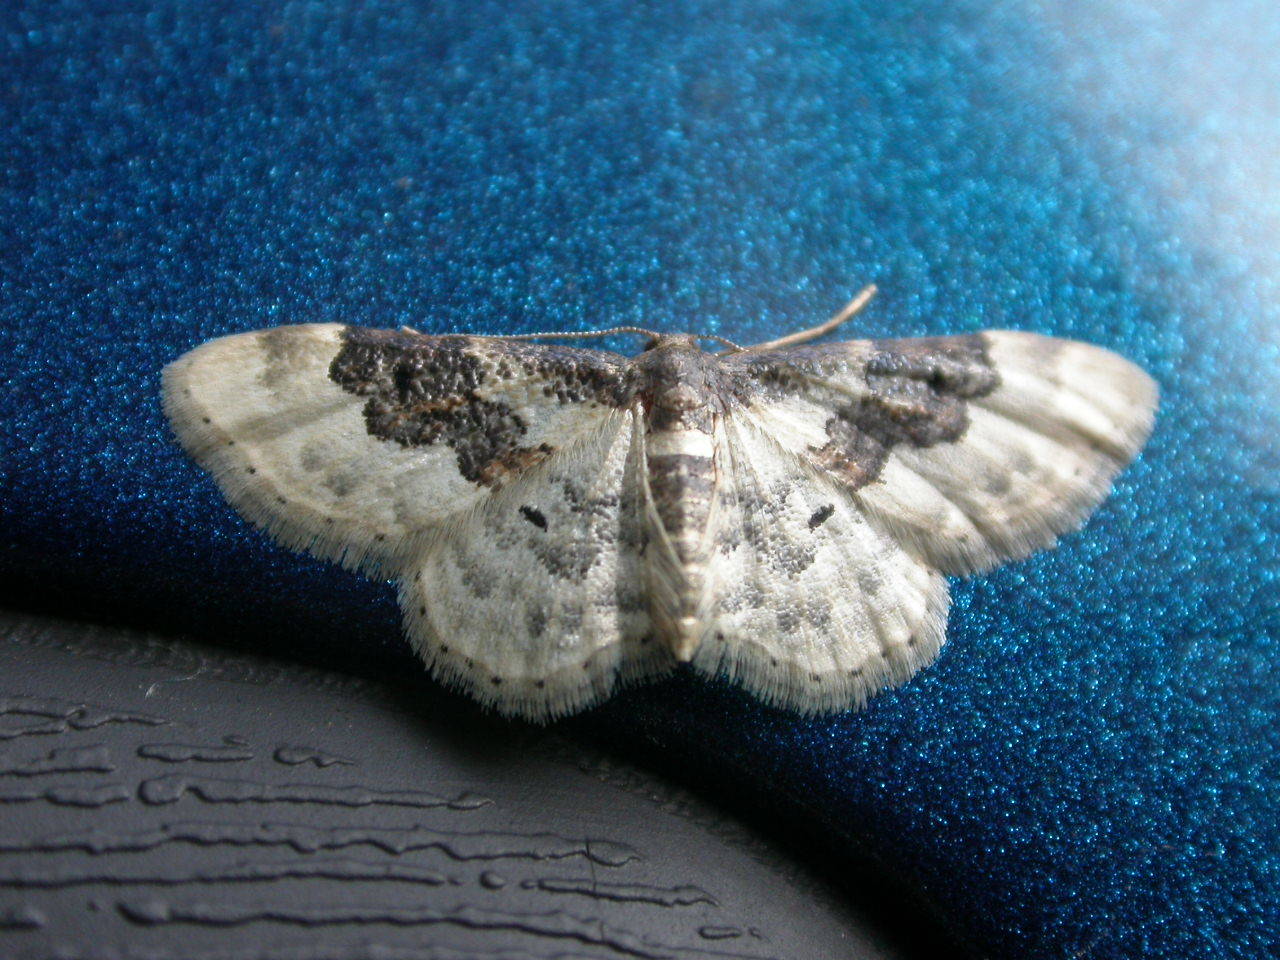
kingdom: Animalia
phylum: Arthropoda
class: Insecta
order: Lepidoptera
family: Geometridae
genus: Idaea
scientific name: Idaea rusticata
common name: Least carpet
